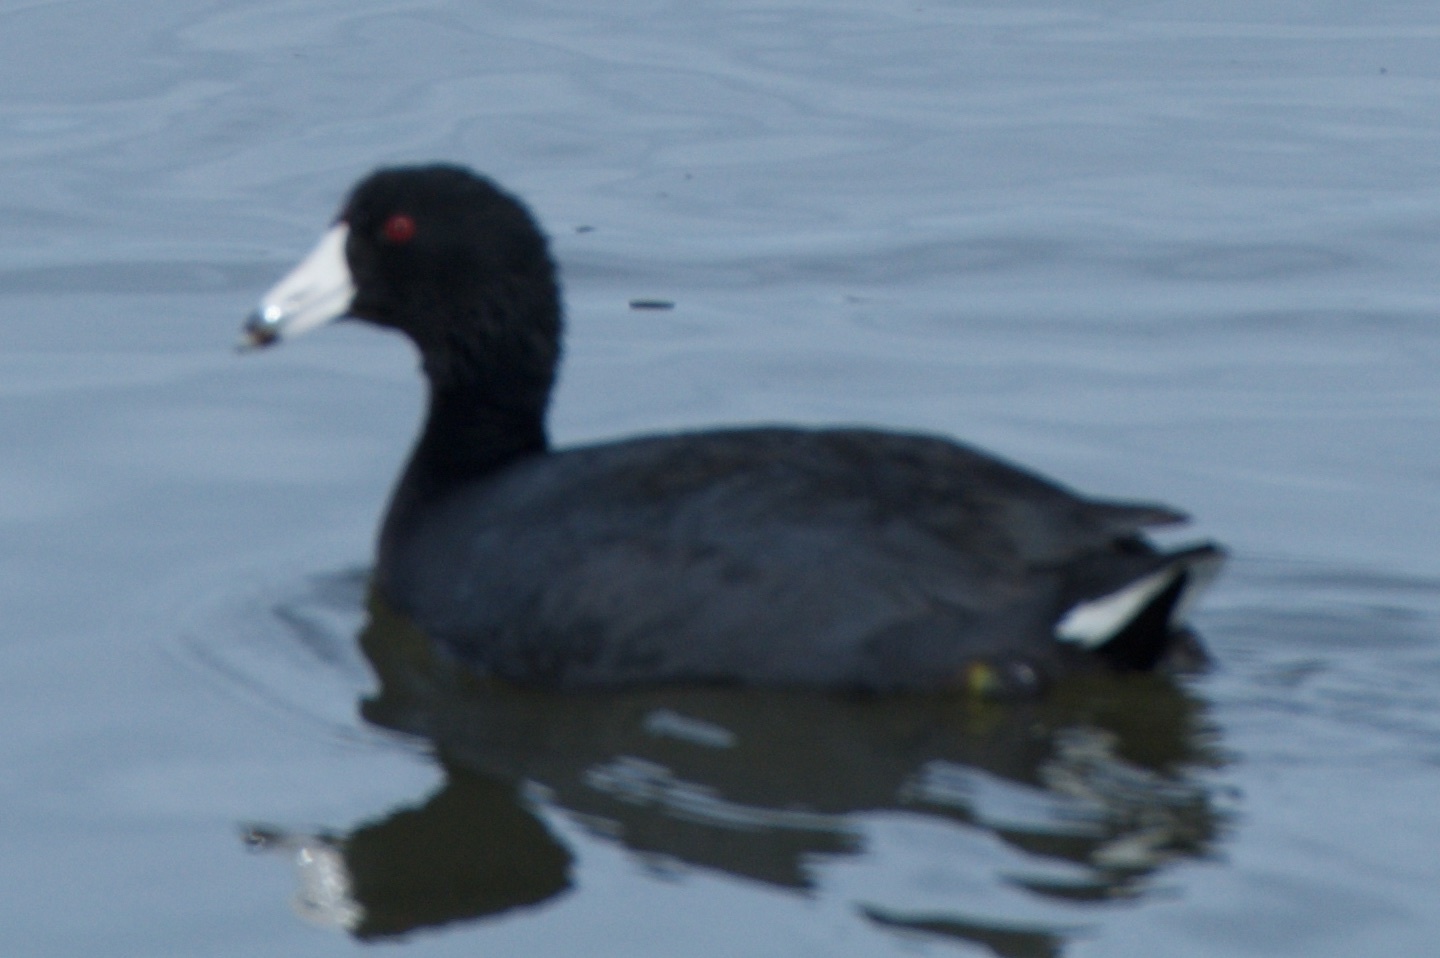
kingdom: Animalia
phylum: Chordata
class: Aves
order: Gruiformes
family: Rallidae
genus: Fulica
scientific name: Fulica americana
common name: American coot
